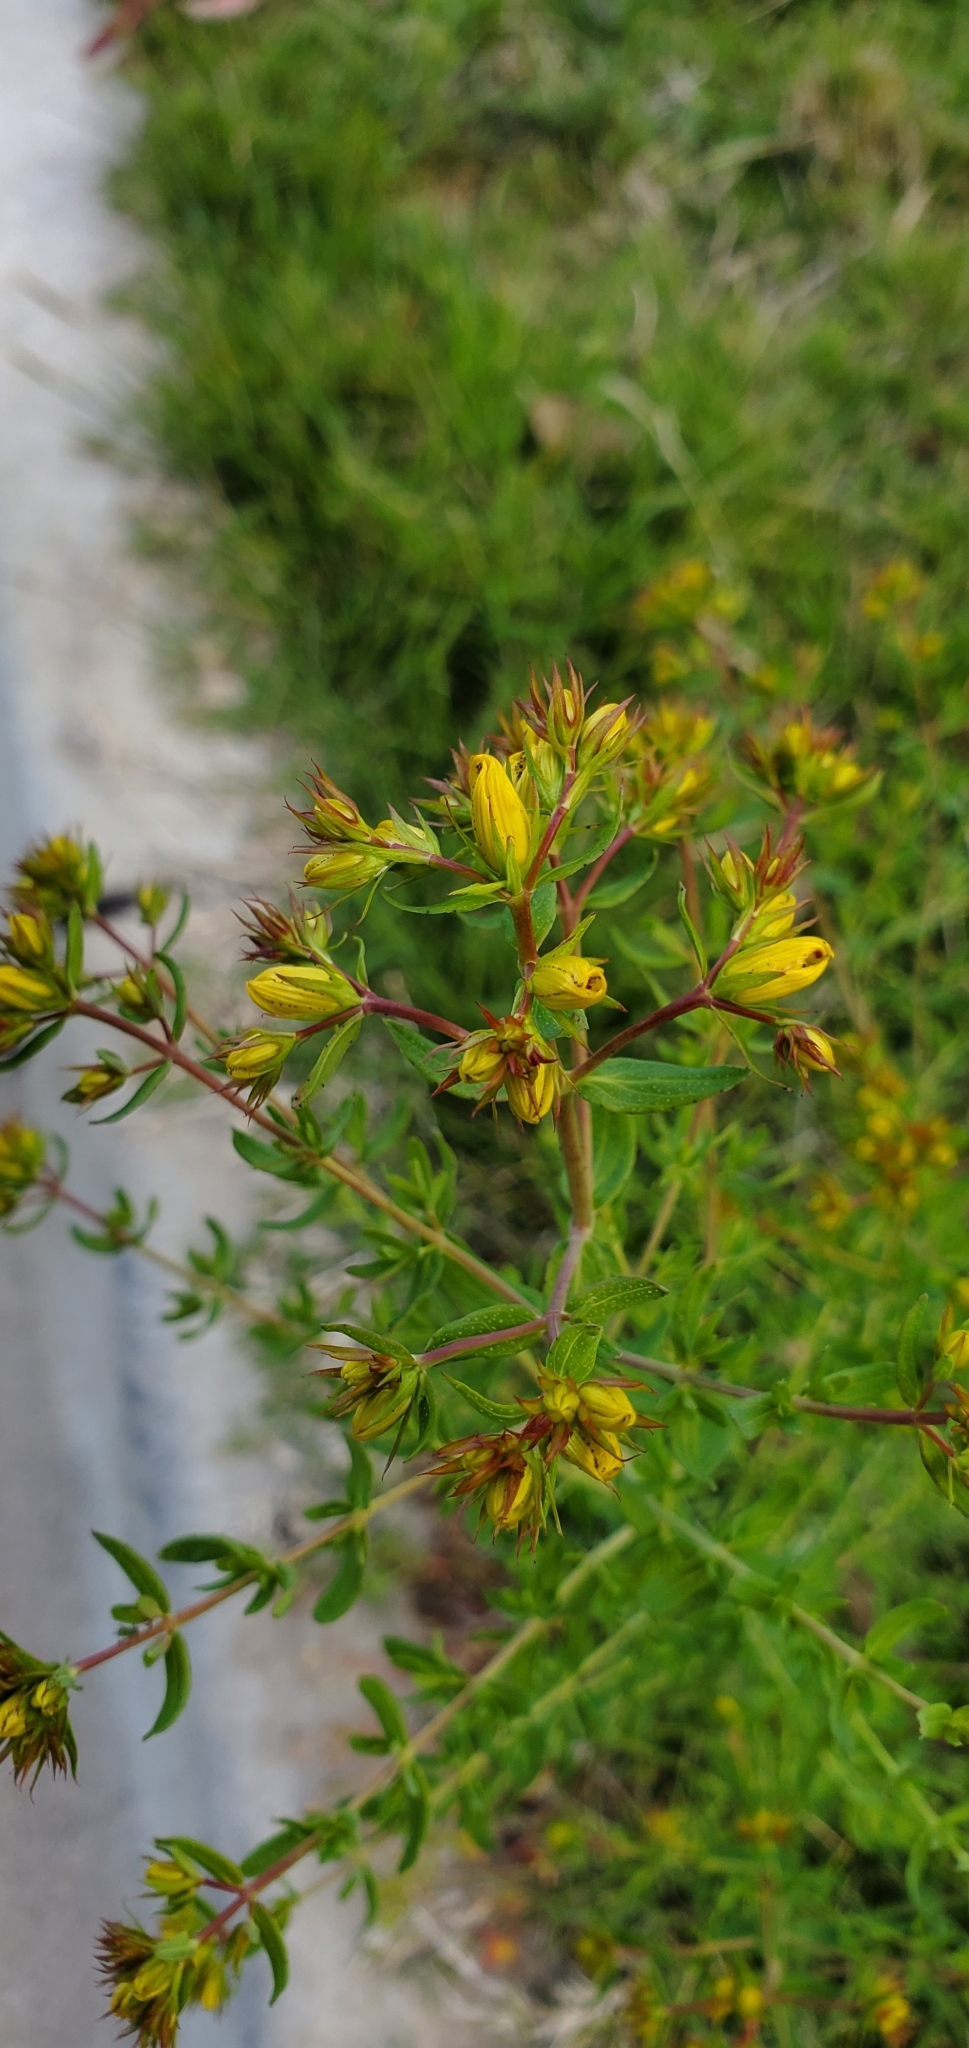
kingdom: Plantae
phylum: Tracheophyta
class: Magnoliopsida
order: Malpighiales
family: Hypericaceae
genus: Hypericum
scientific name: Hypericum perforatum
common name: Common st. johnswort
